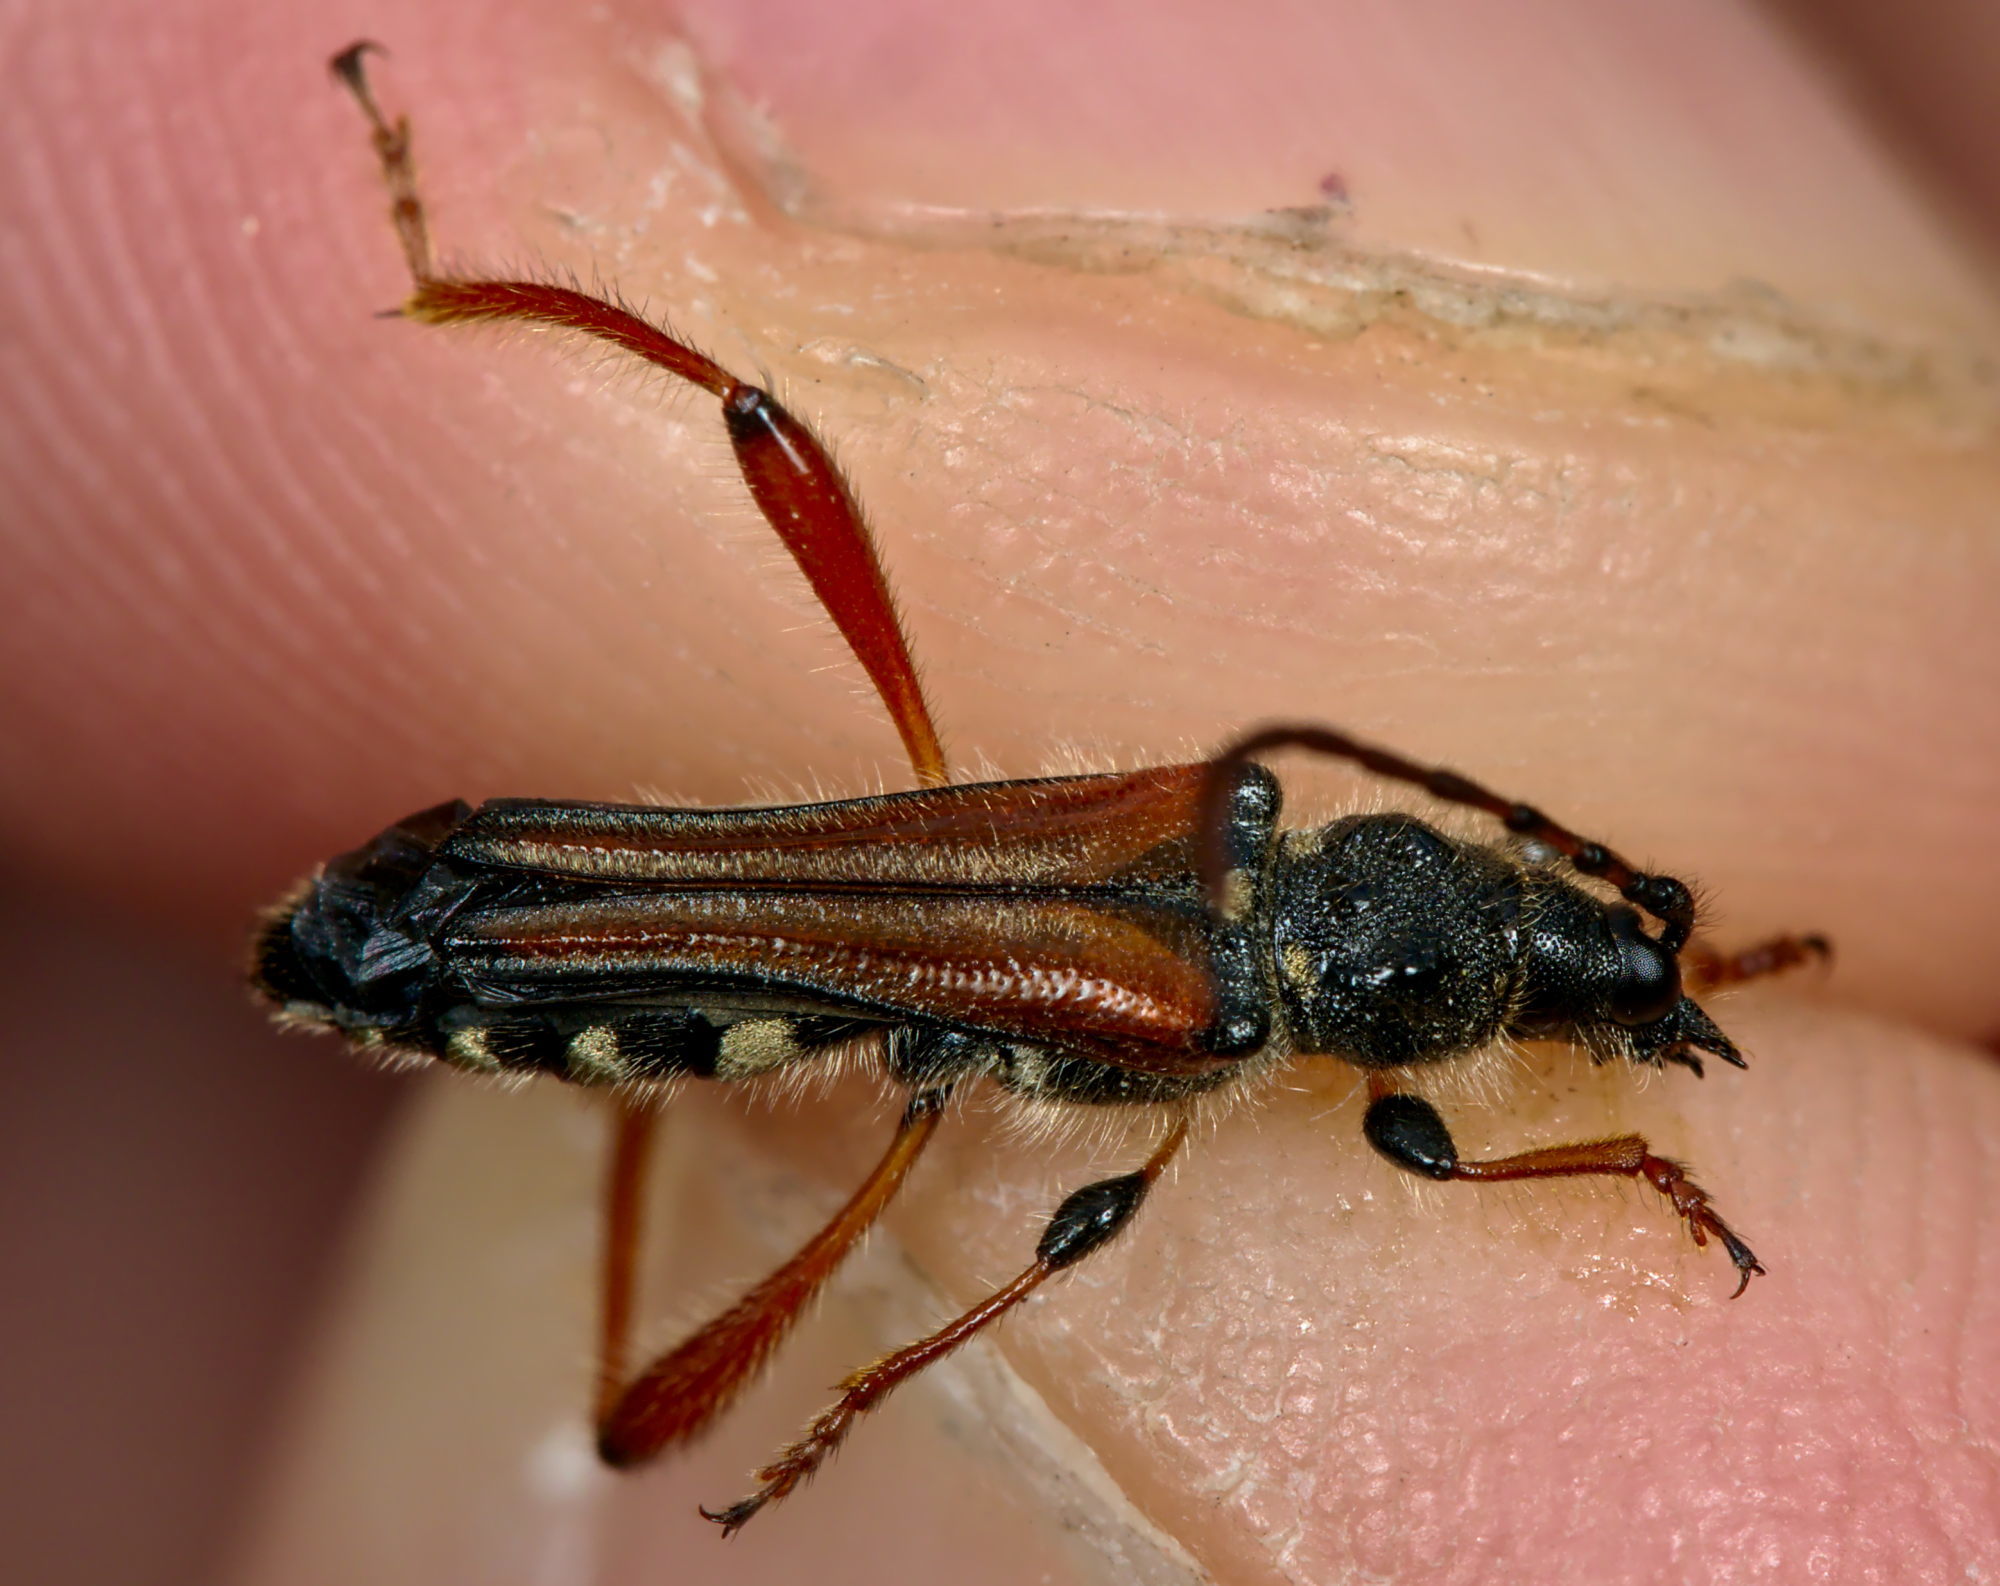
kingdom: Animalia
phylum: Arthropoda
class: Insecta
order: Coleoptera
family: Cerambycidae
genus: Stenopterus
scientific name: Stenopterus rufus
